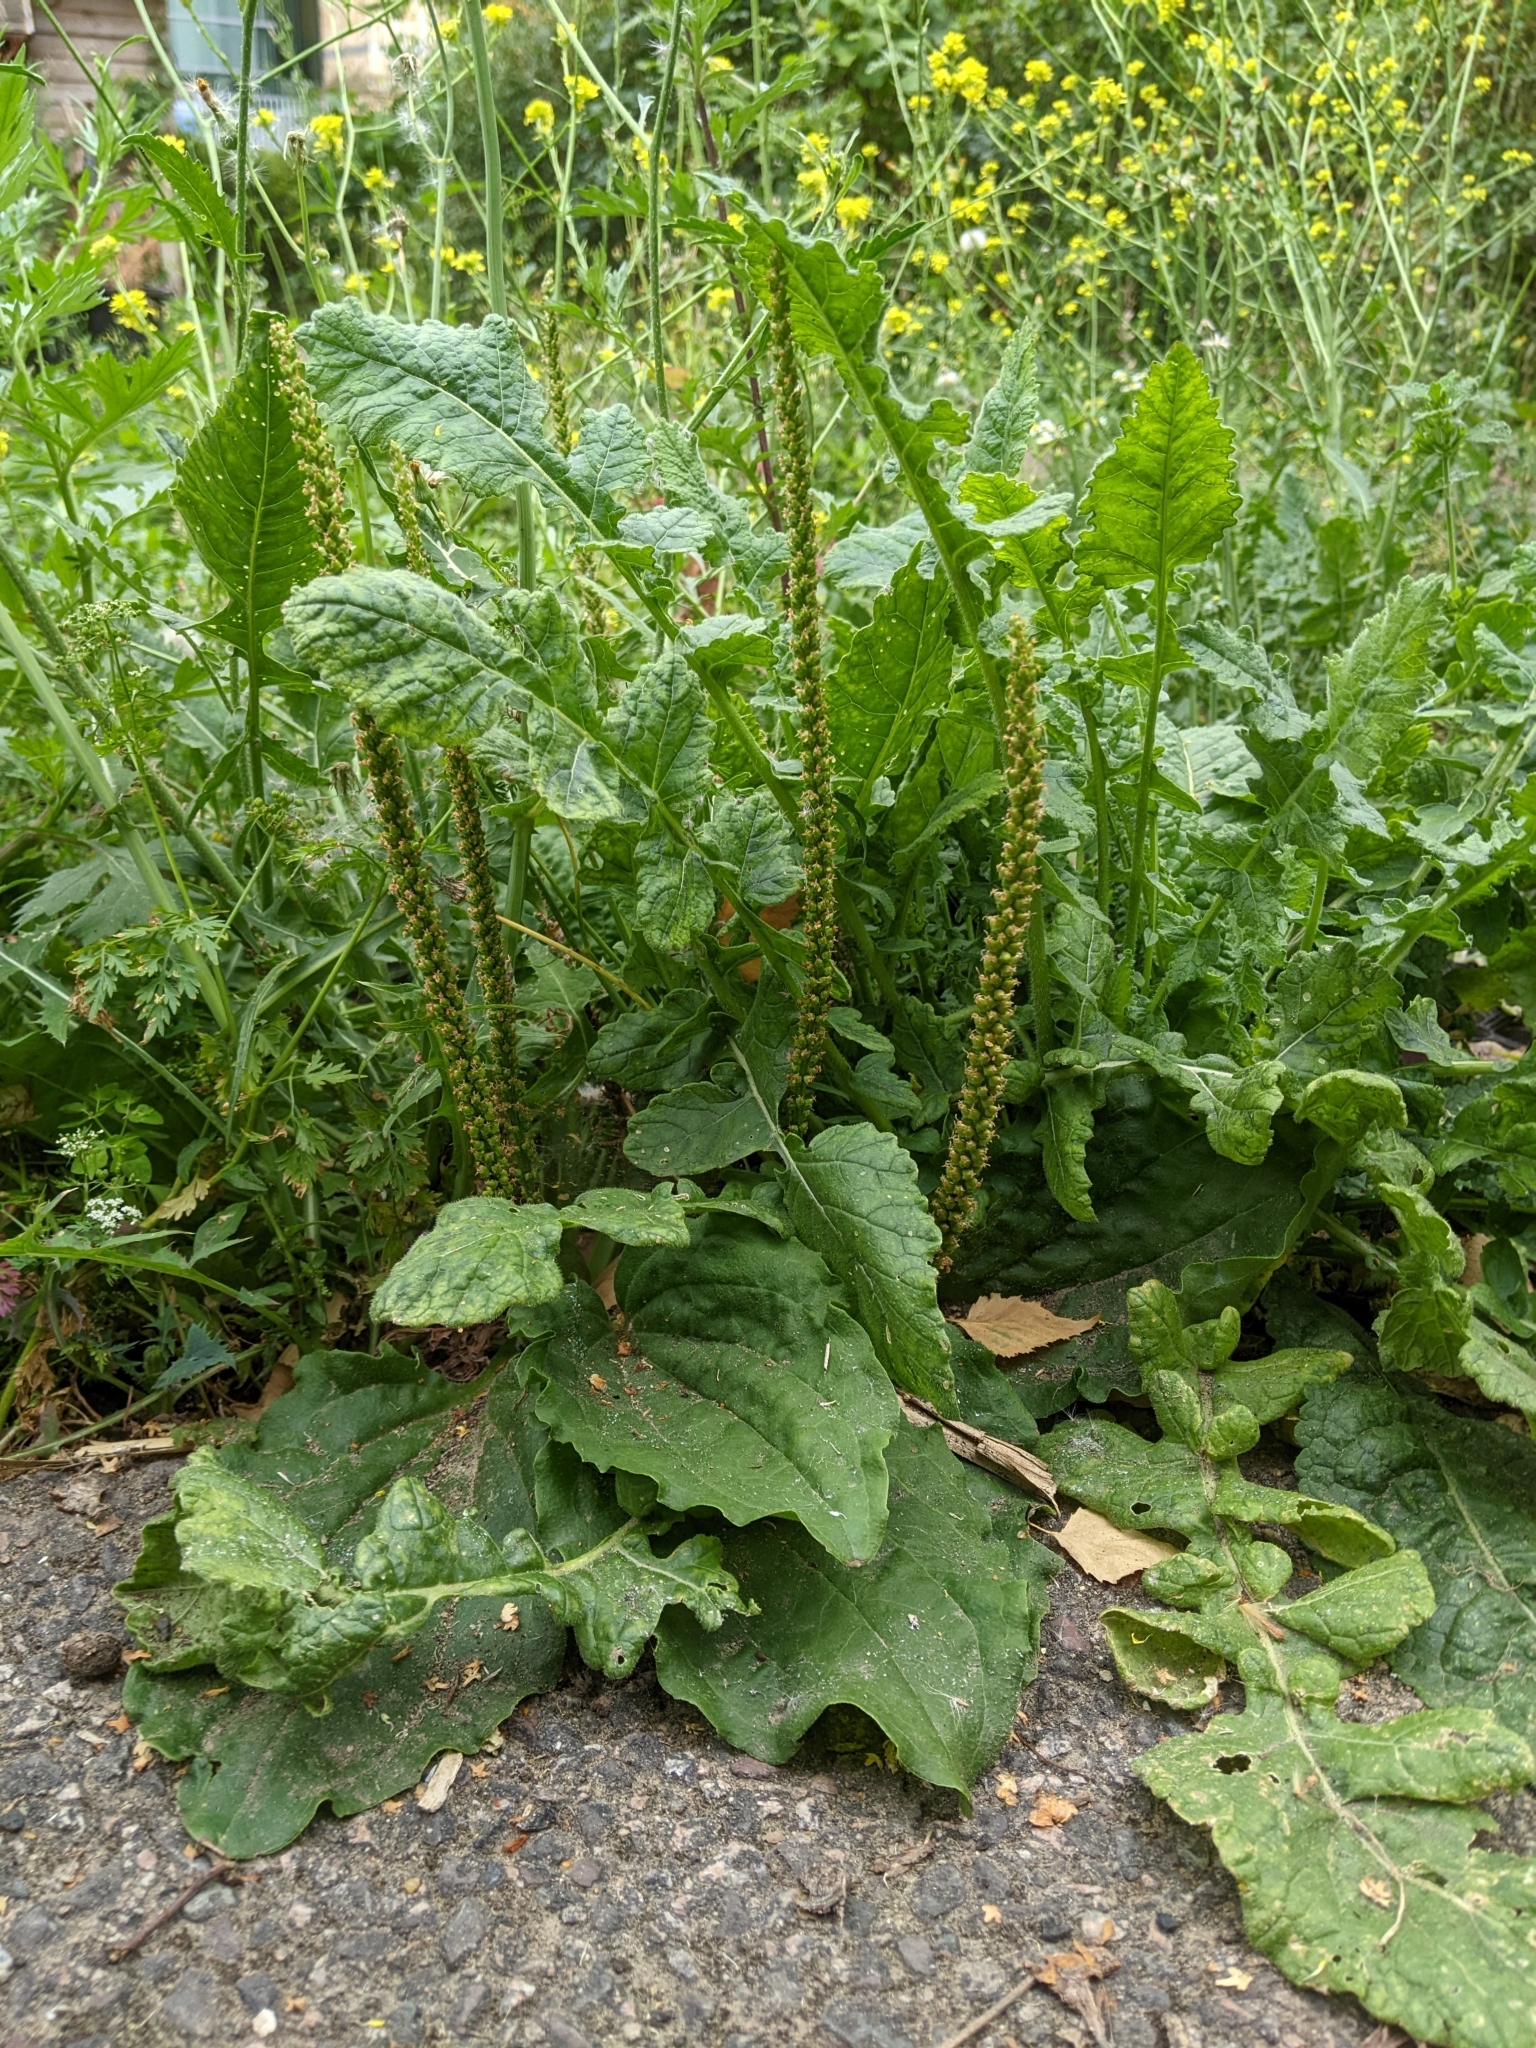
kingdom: Plantae
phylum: Tracheophyta
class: Magnoliopsida
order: Lamiales
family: Plantaginaceae
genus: Plantago
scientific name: Plantago major
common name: Common plantain
